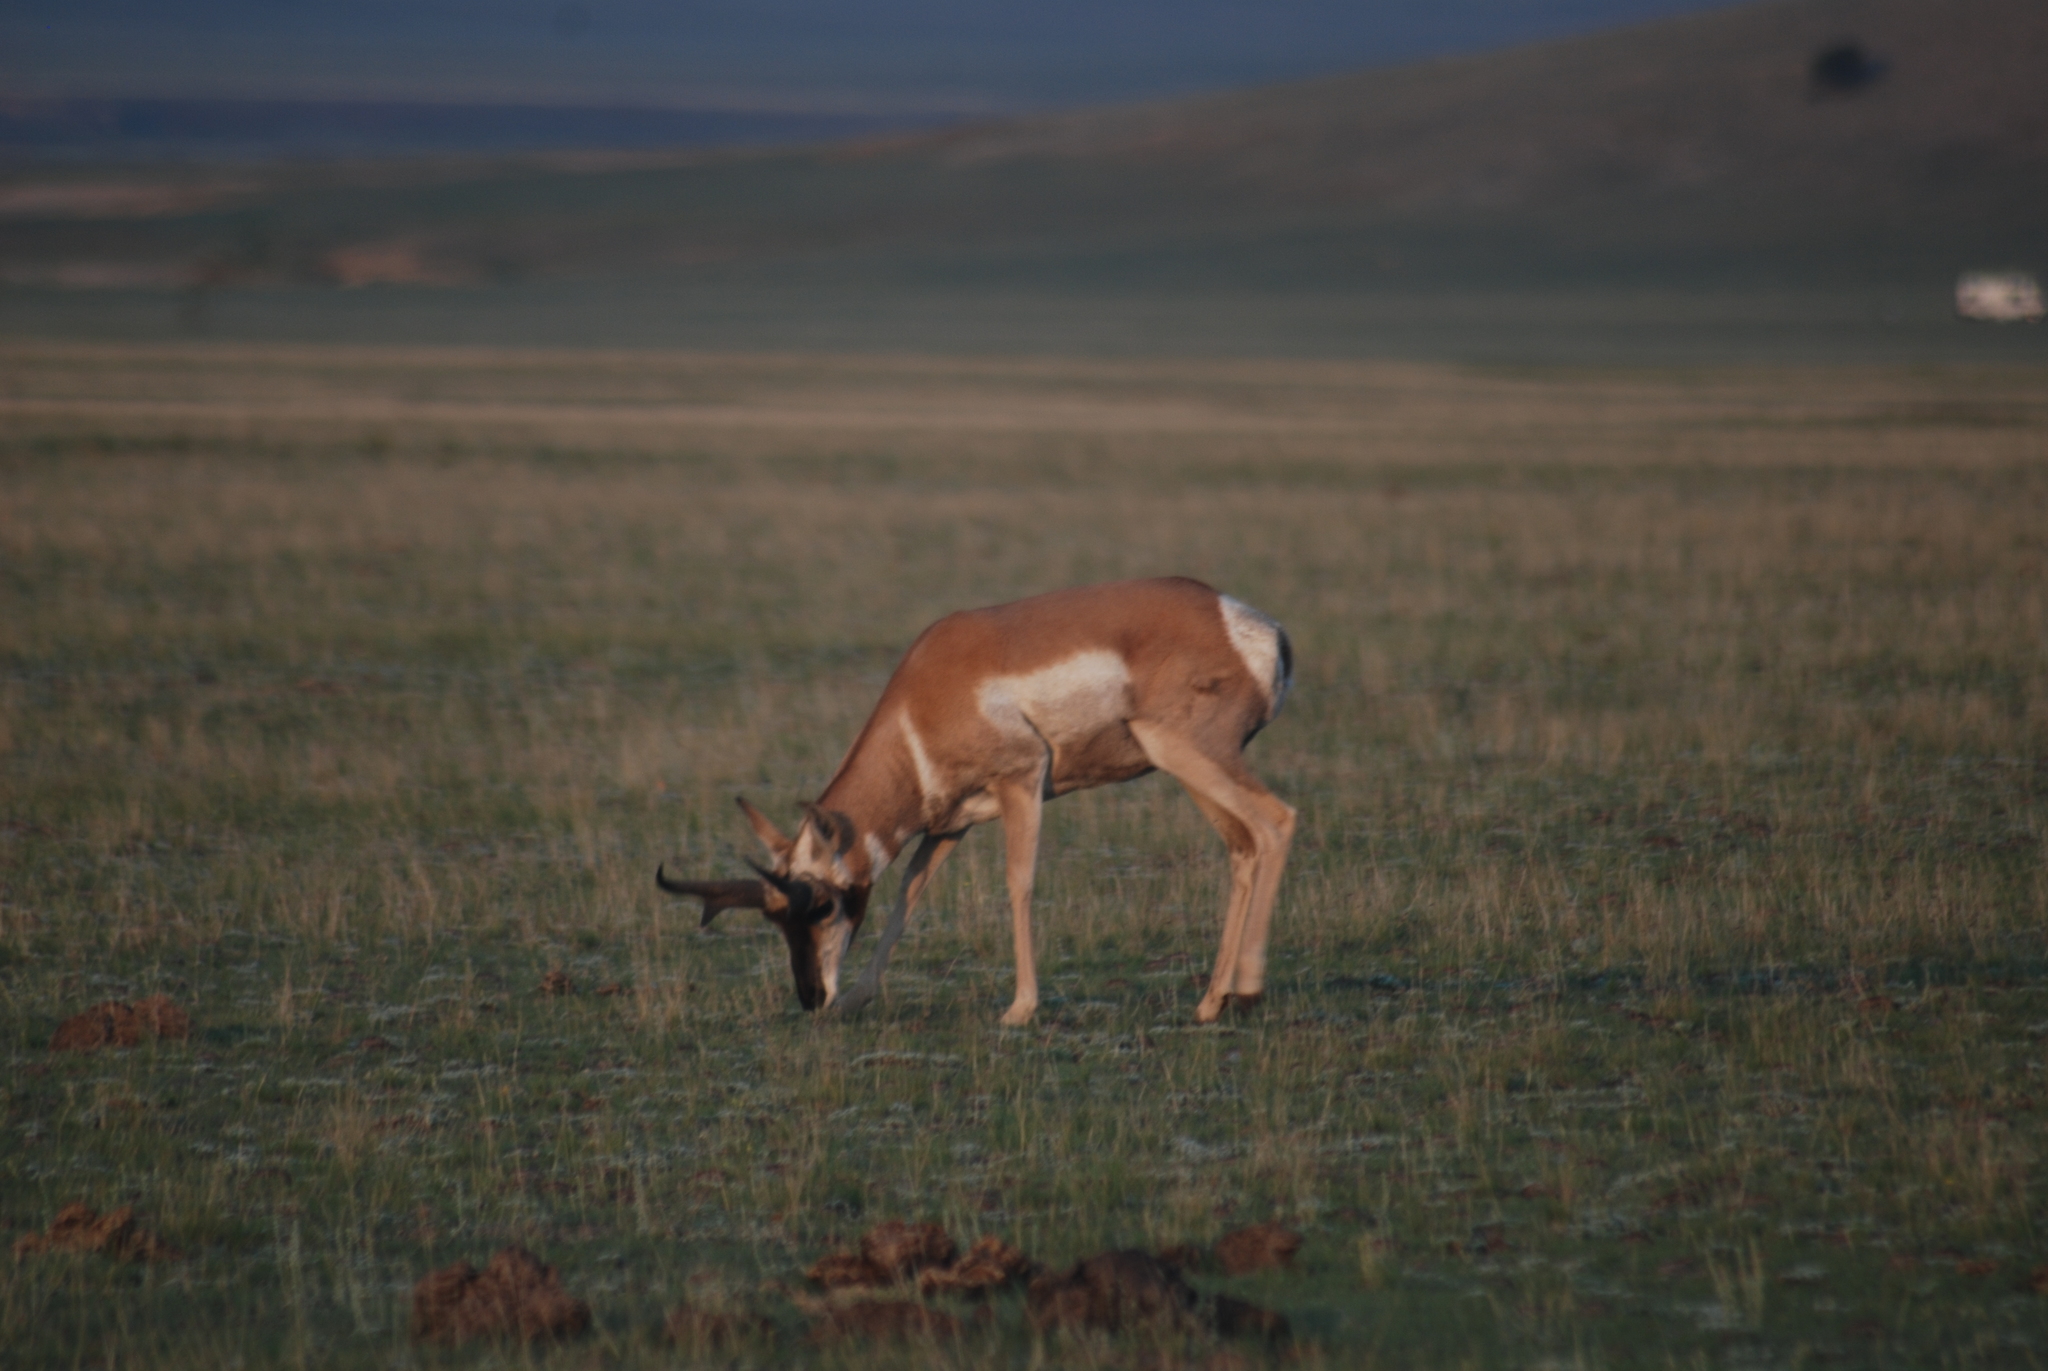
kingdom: Animalia
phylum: Chordata
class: Mammalia
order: Artiodactyla
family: Antilocapridae
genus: Antilocapra
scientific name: Antilocapra americana
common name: Pronghorn
